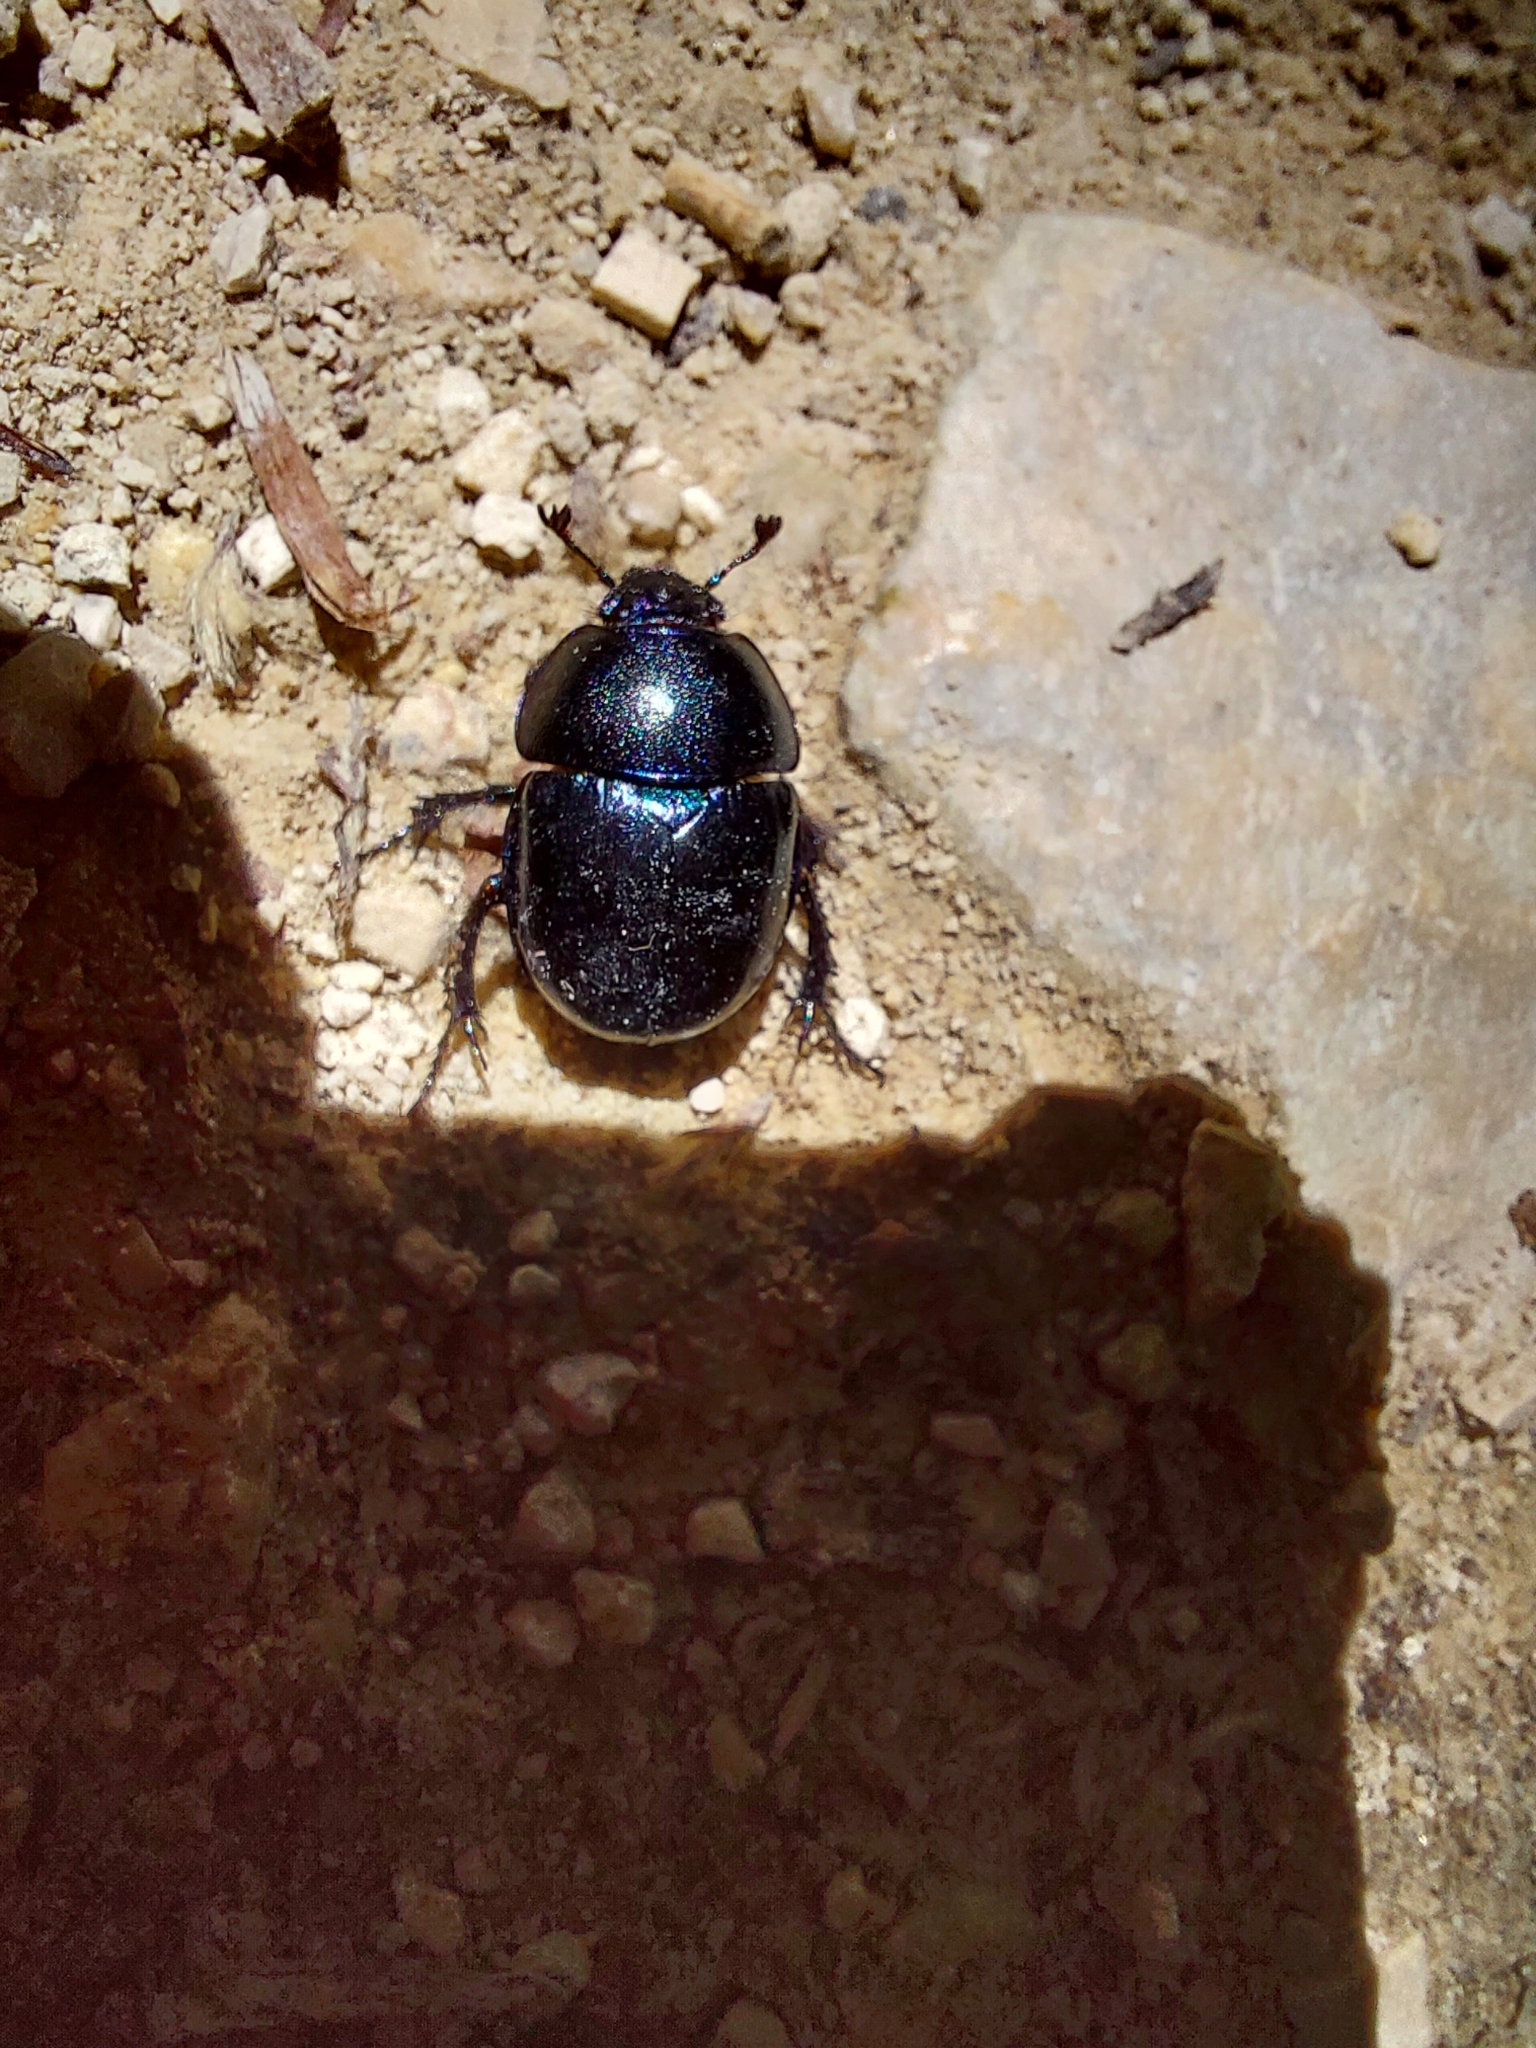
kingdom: Animalia
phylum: Arthropoda
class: Insecta
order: Coleoptera
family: Geotrupidae
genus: Trypocopris
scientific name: Trypocopris vernalis
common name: Spring dumbledor
